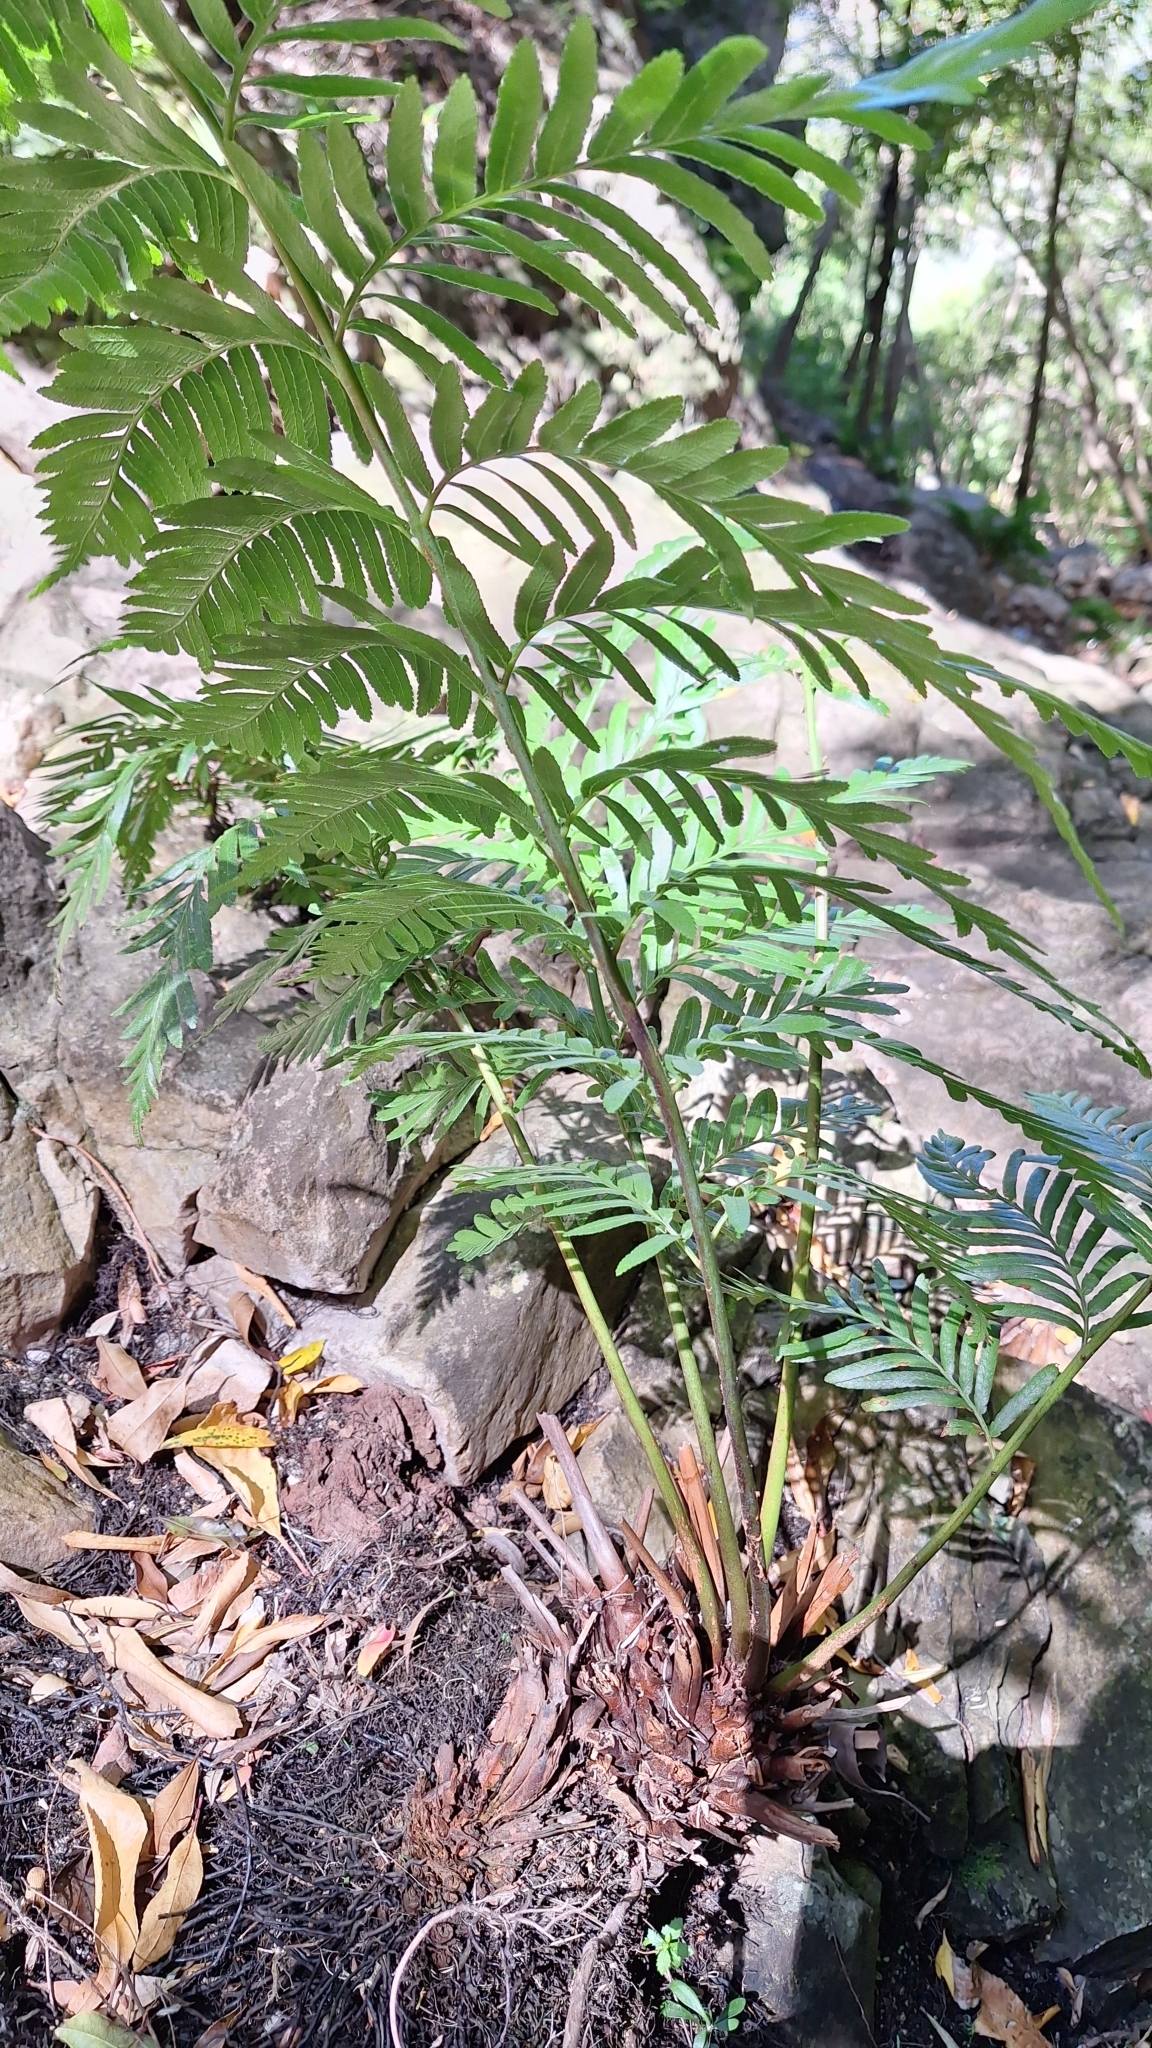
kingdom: Plantae
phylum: Tracheophyta
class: Polypodiopsida
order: Osmundales
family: Osmundaceae
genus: Todea
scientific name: Todea barbara
